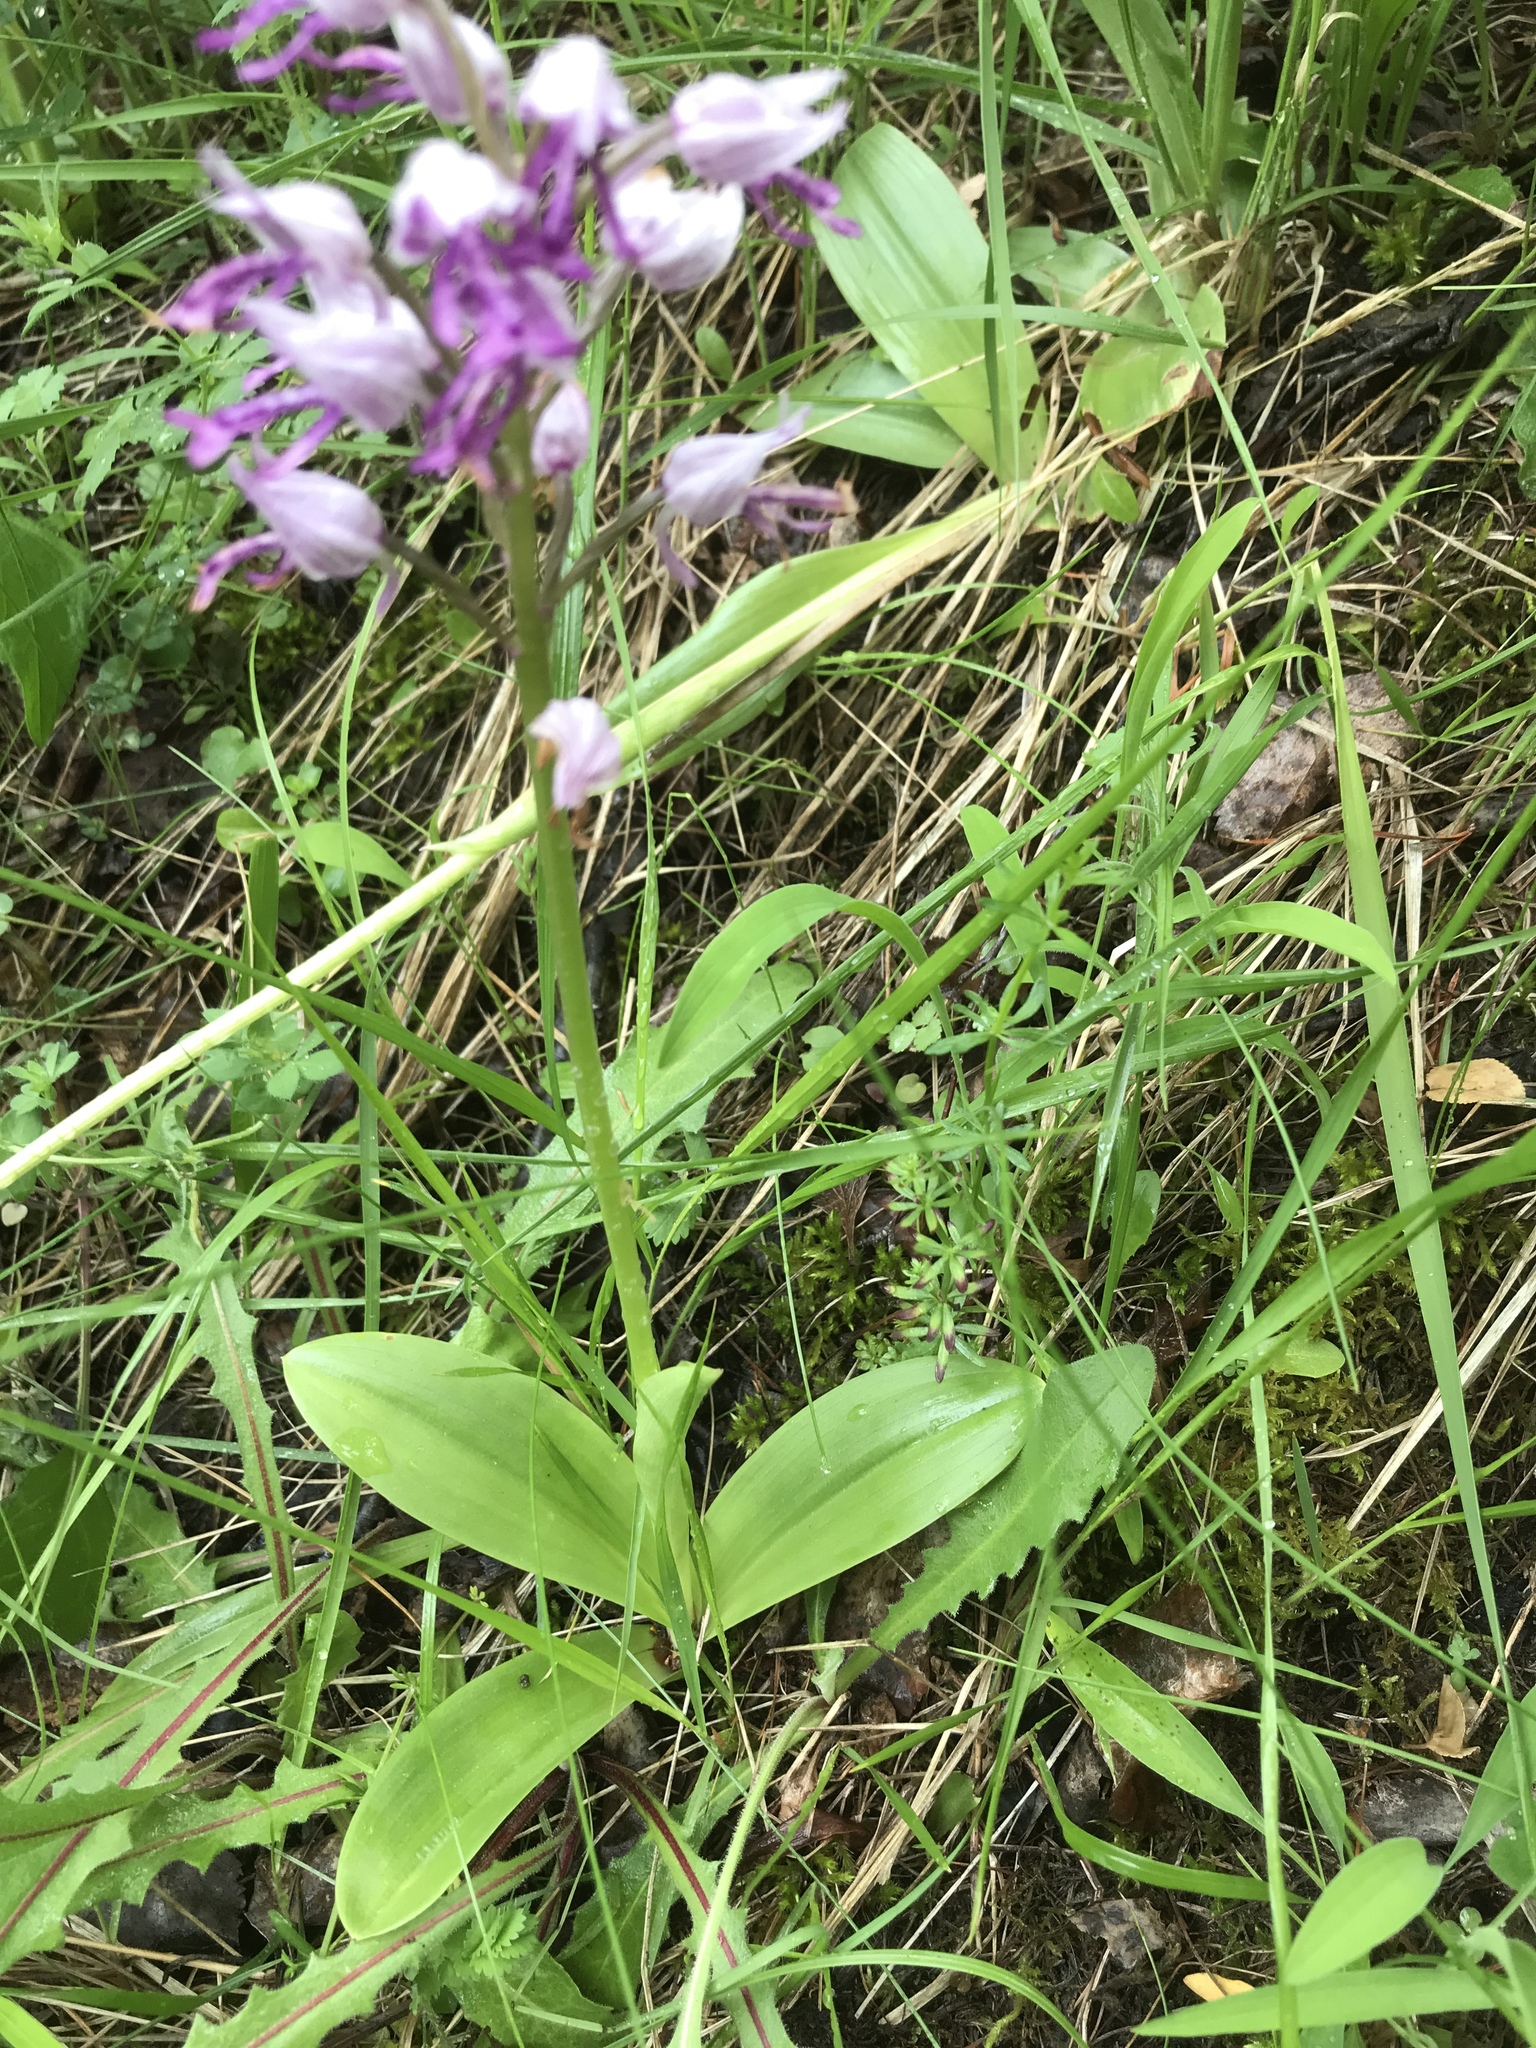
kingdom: Plantae
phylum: Tracheophyta
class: Liliopsida
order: Asparagales
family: Orchidaceae
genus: Orchis
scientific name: Orchis militaris
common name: Military orchid
